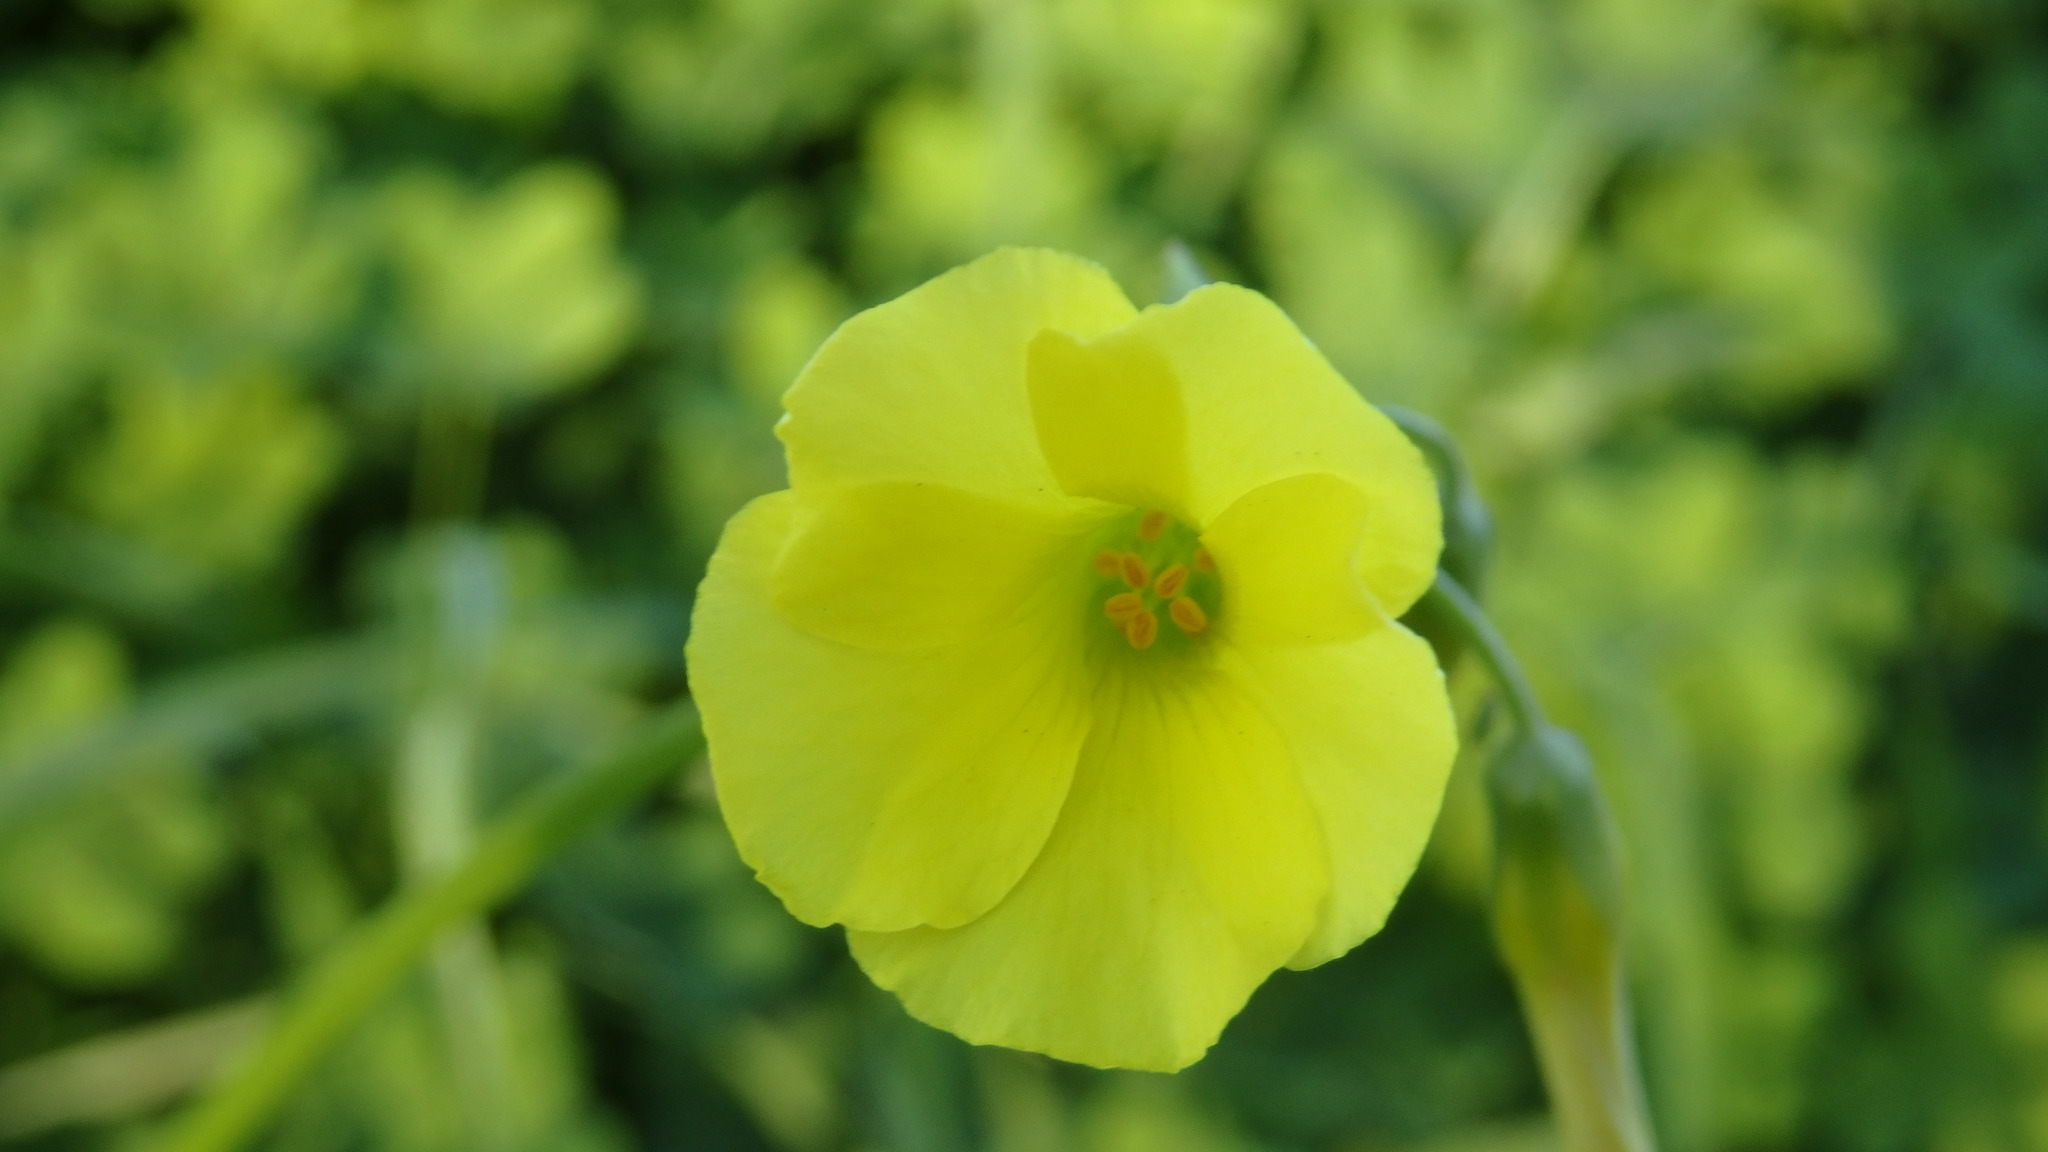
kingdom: Plantae
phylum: Tracheophyta
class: Magnoliopsida
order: Oxalidales
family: Oxalidaceae
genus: Oxalis
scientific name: Oxalis pes-caprae
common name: Bermuda-buttercup
